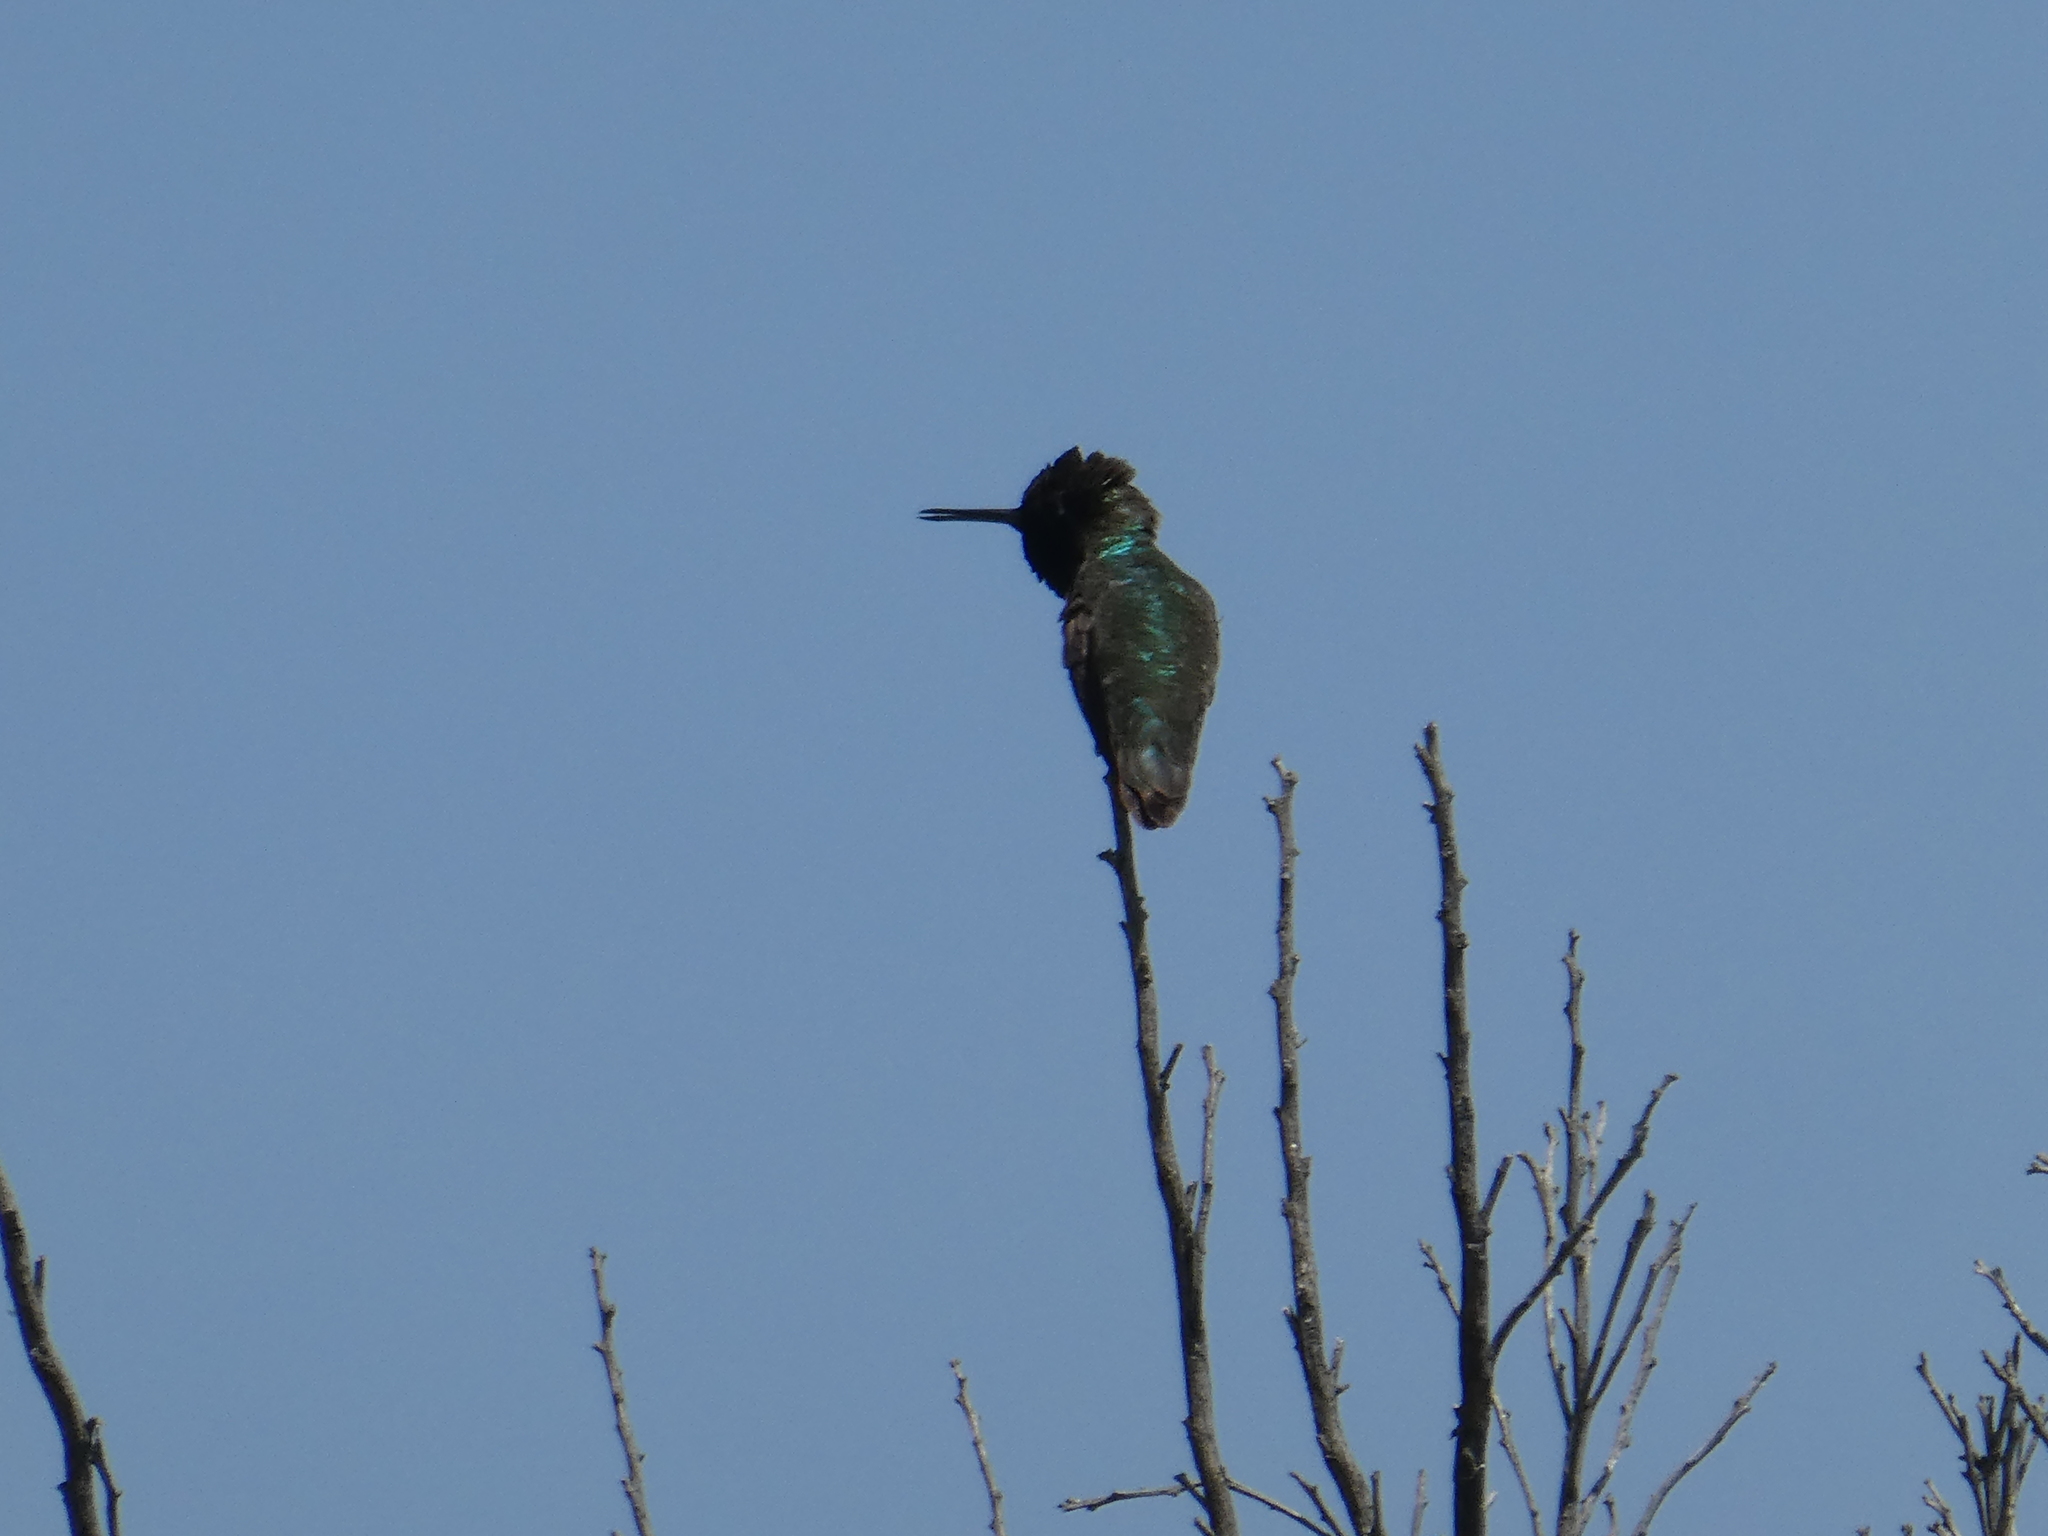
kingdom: Animalia
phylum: Chordata
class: Aves
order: Apodiformes
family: Trochilidae
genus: Calypte
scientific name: Calypte anna
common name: Anna's hummingbird
